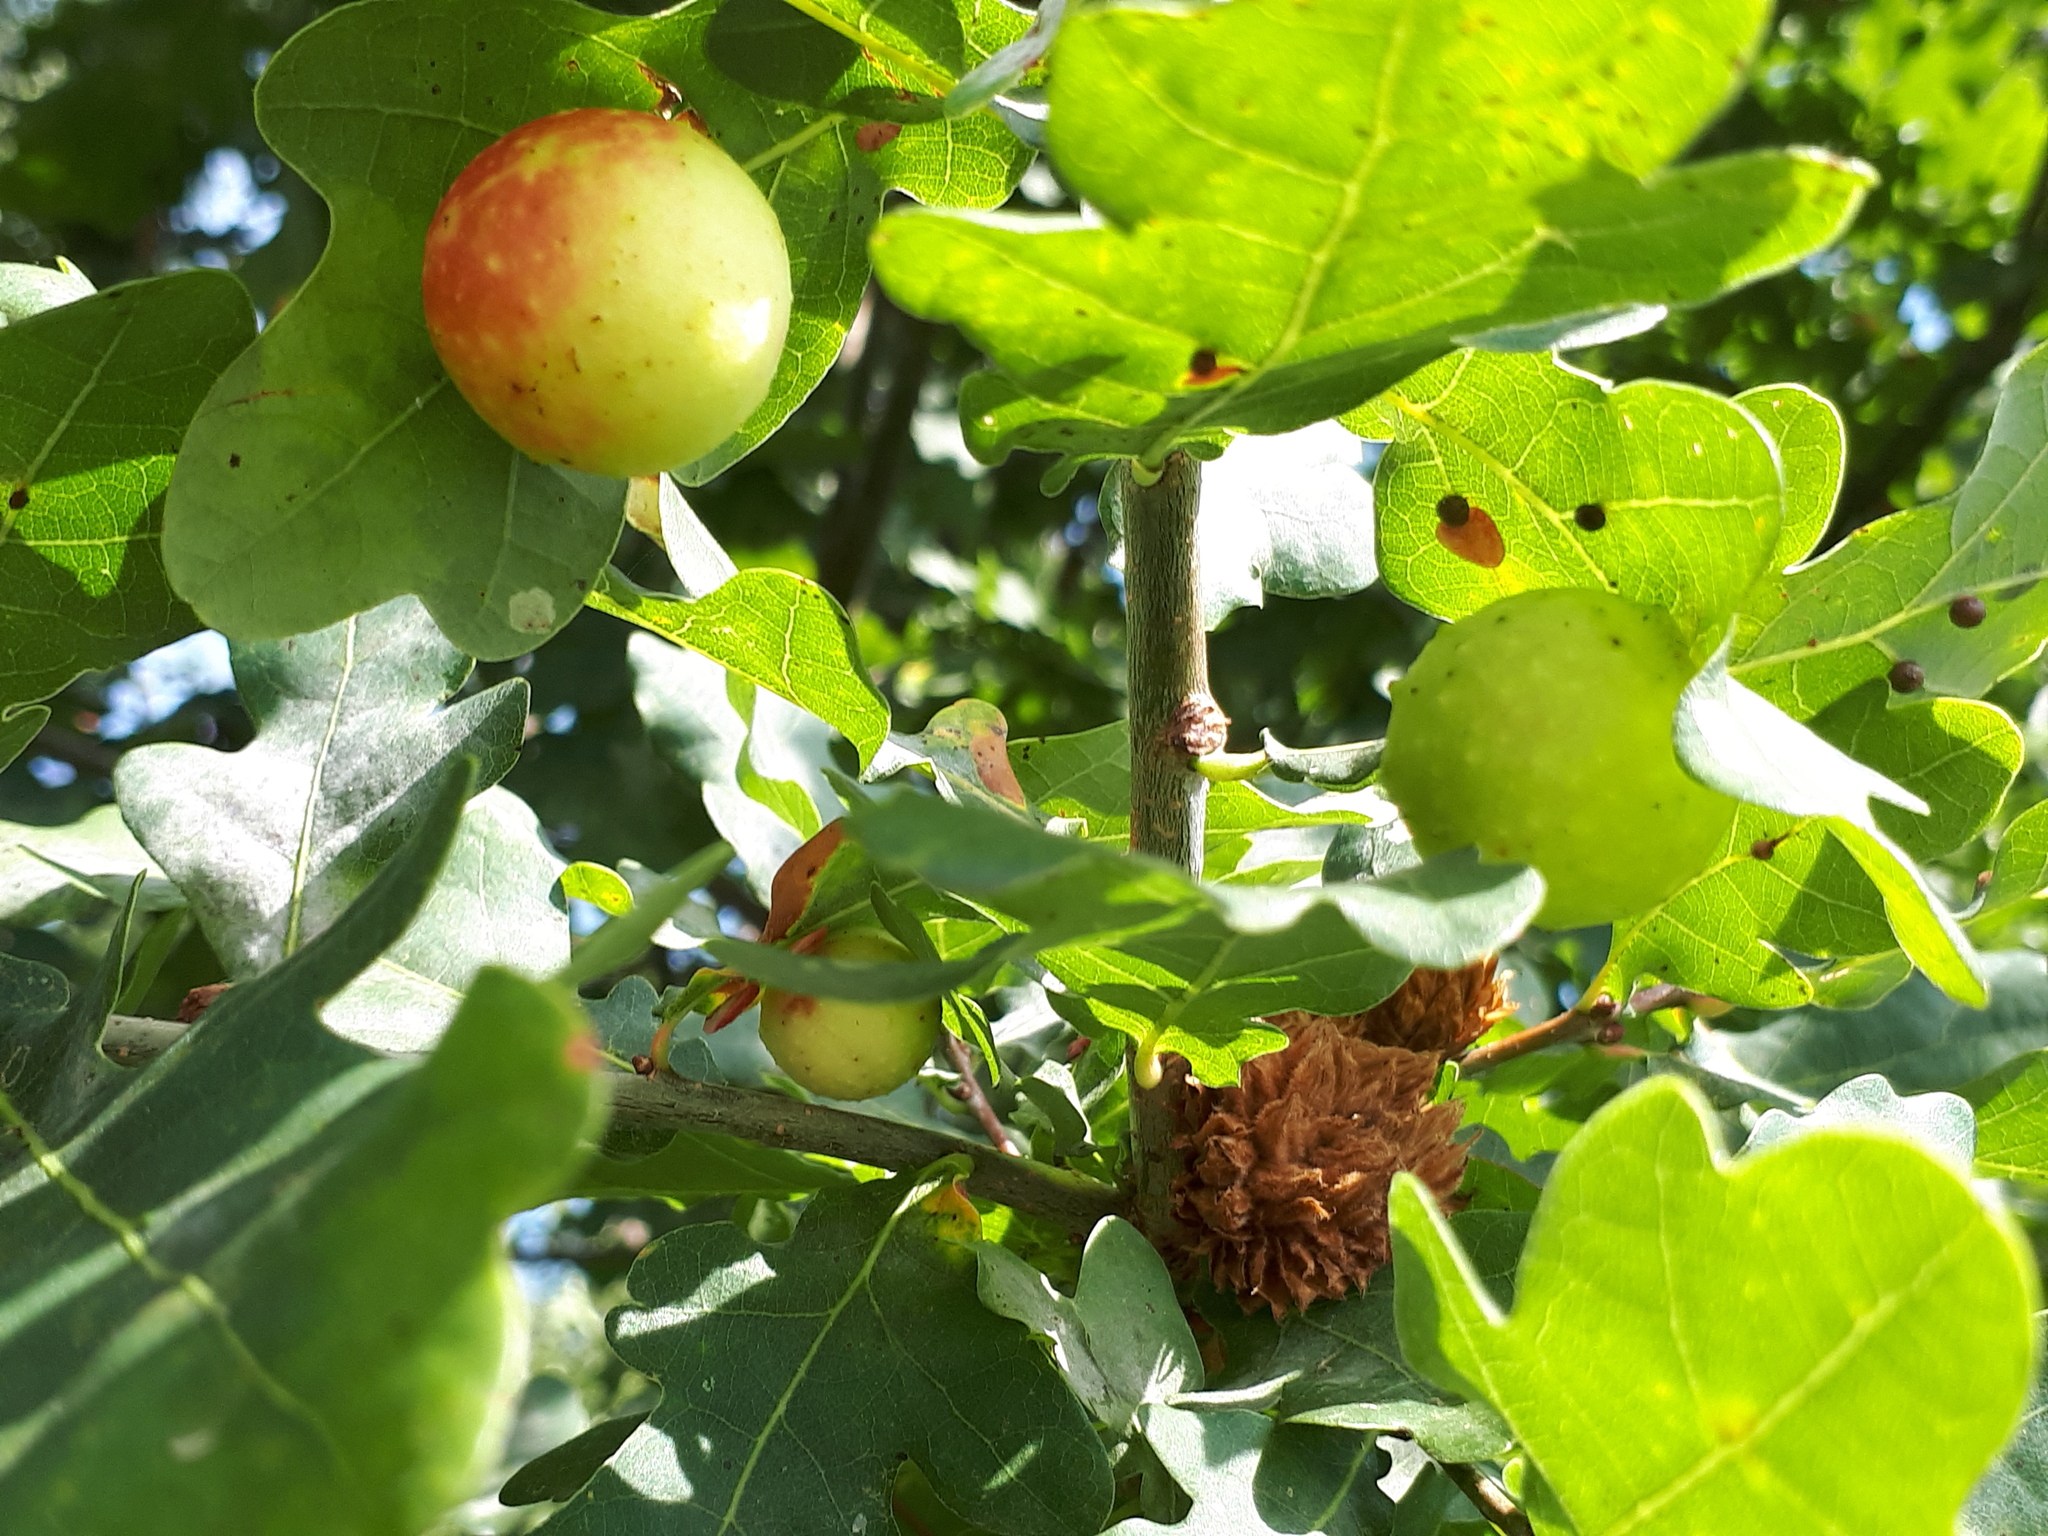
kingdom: Animalia
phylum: Arthropoda
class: Insecta
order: Hymenoptera
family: Cynipidae
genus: Cynips
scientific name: Cynips quercusfolii
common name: Cherry gall
